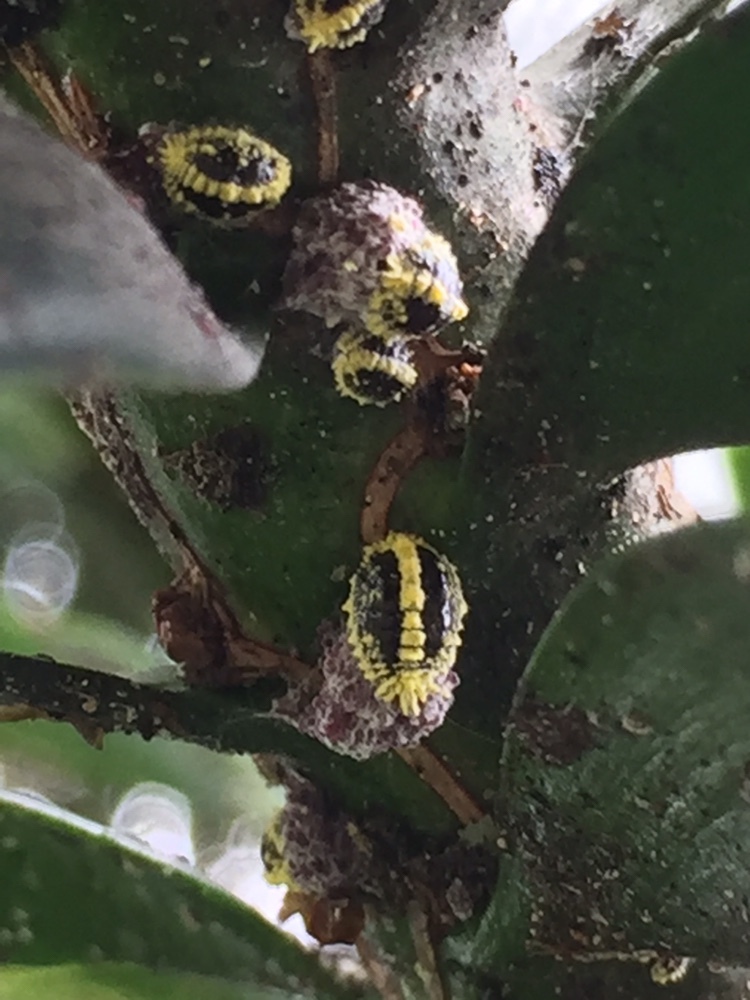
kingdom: Animalia
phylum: Arthropoda
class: Insecta
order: Hemiptera
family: Pseudococcidae
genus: Nipaecoccus
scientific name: Nipaecoccus aurilanatus
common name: Mealybug
